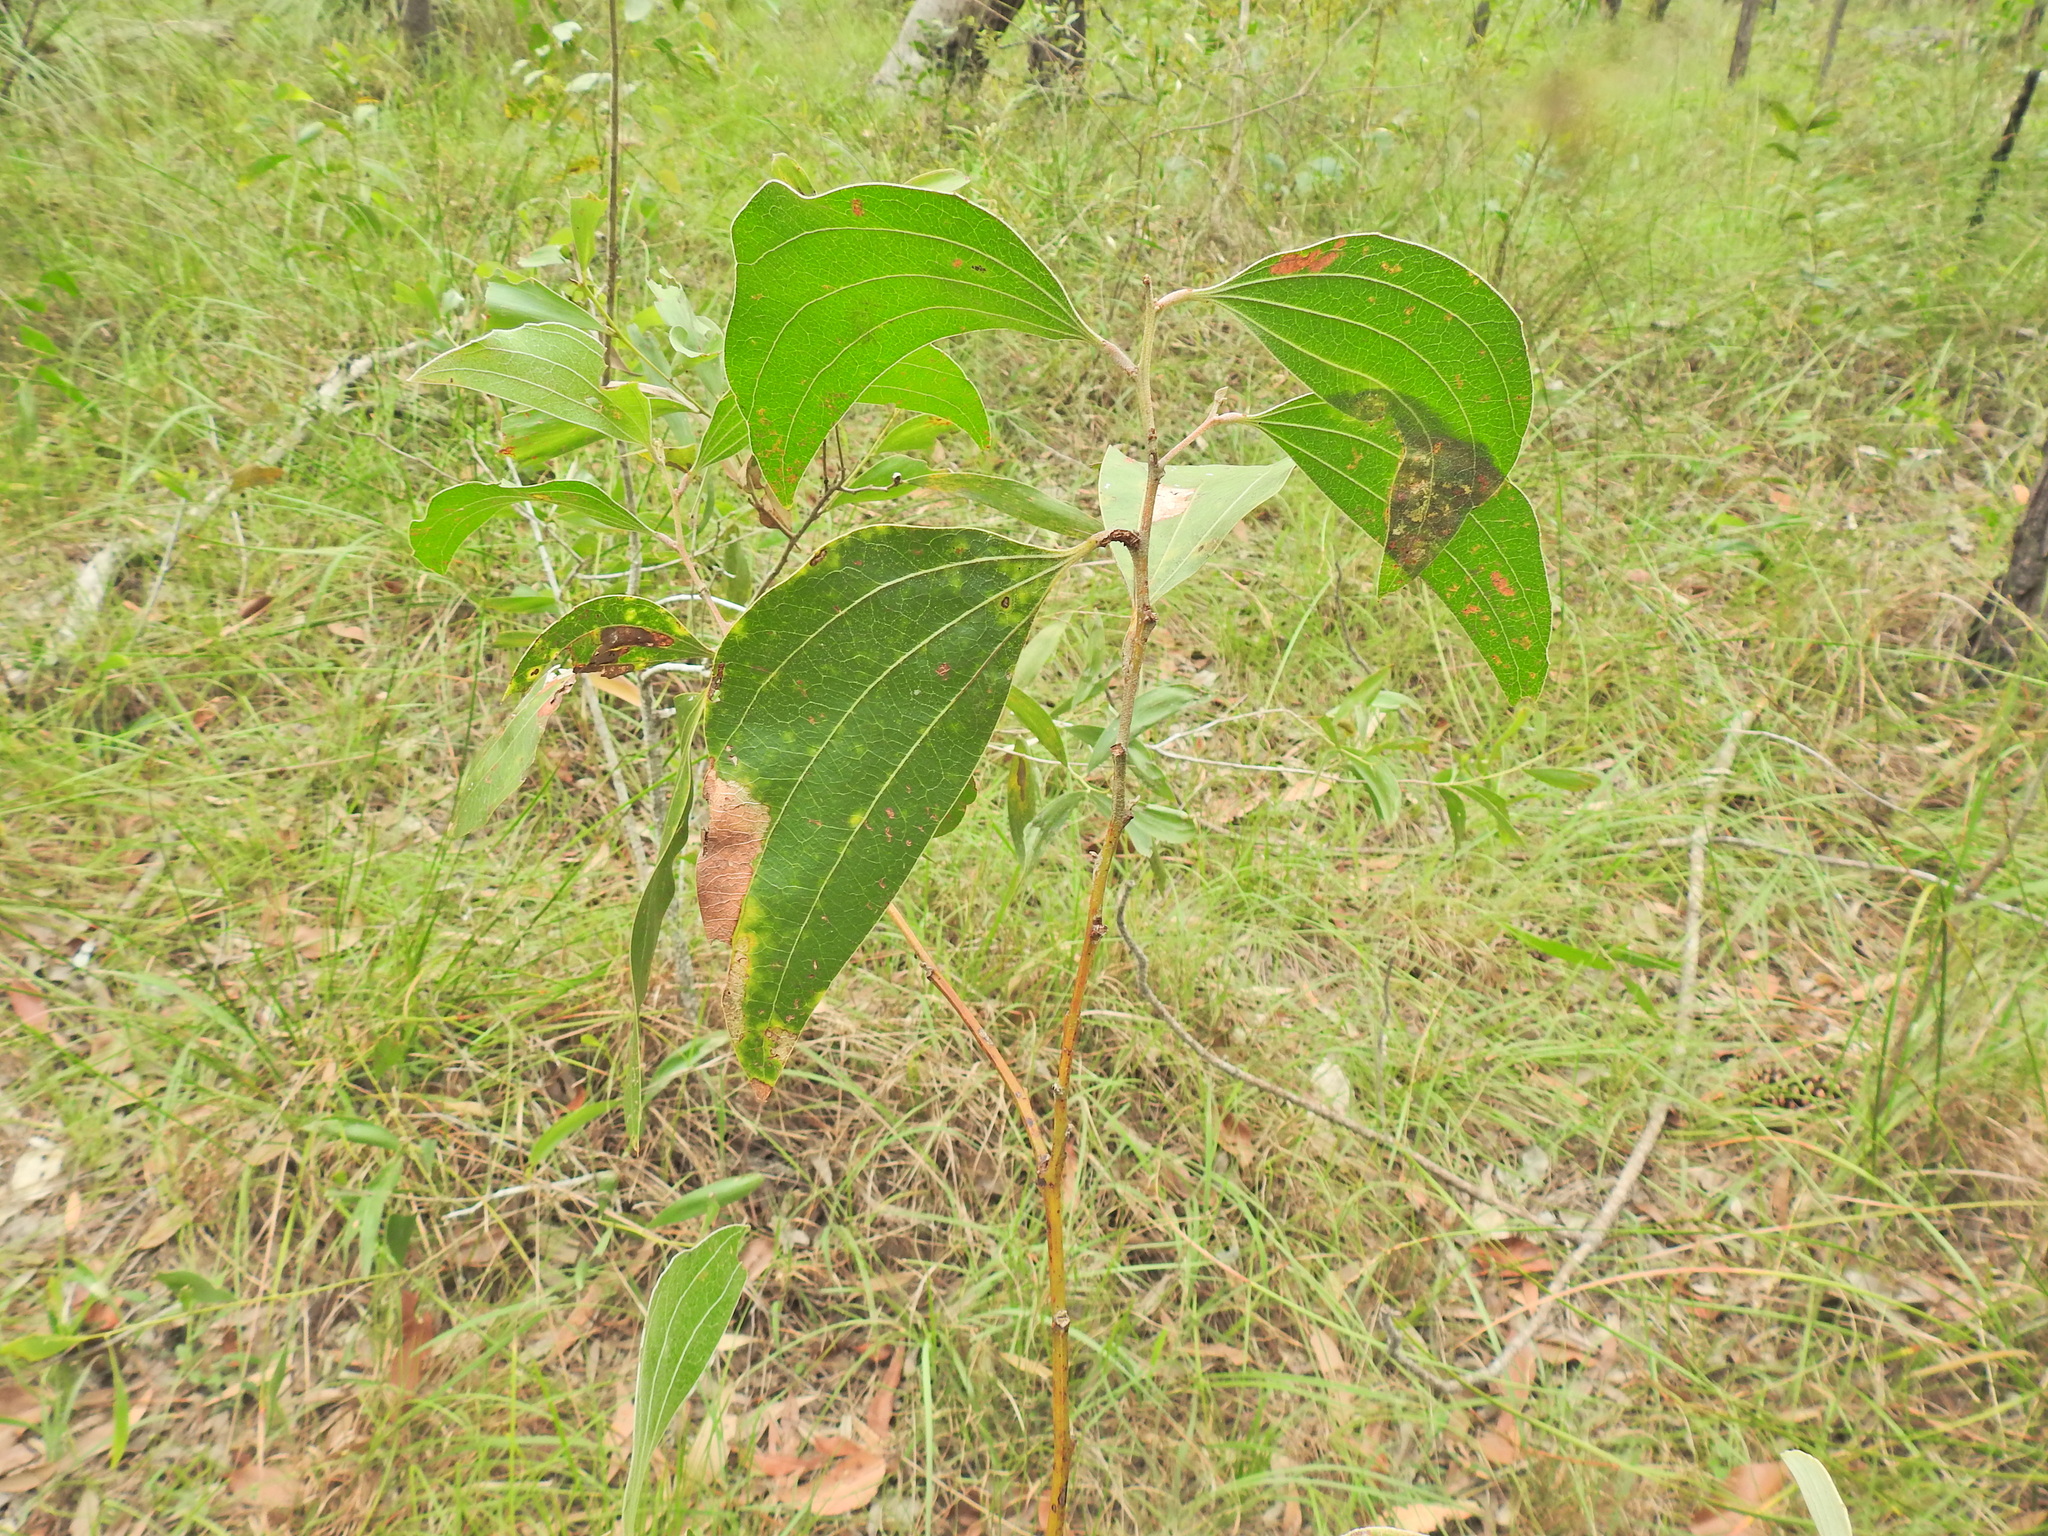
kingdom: Plantae
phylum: Tracheophyta
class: Magnoliopsida
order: Fabales
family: Fabaceae
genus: Acacia
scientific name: Acacia flavescens
